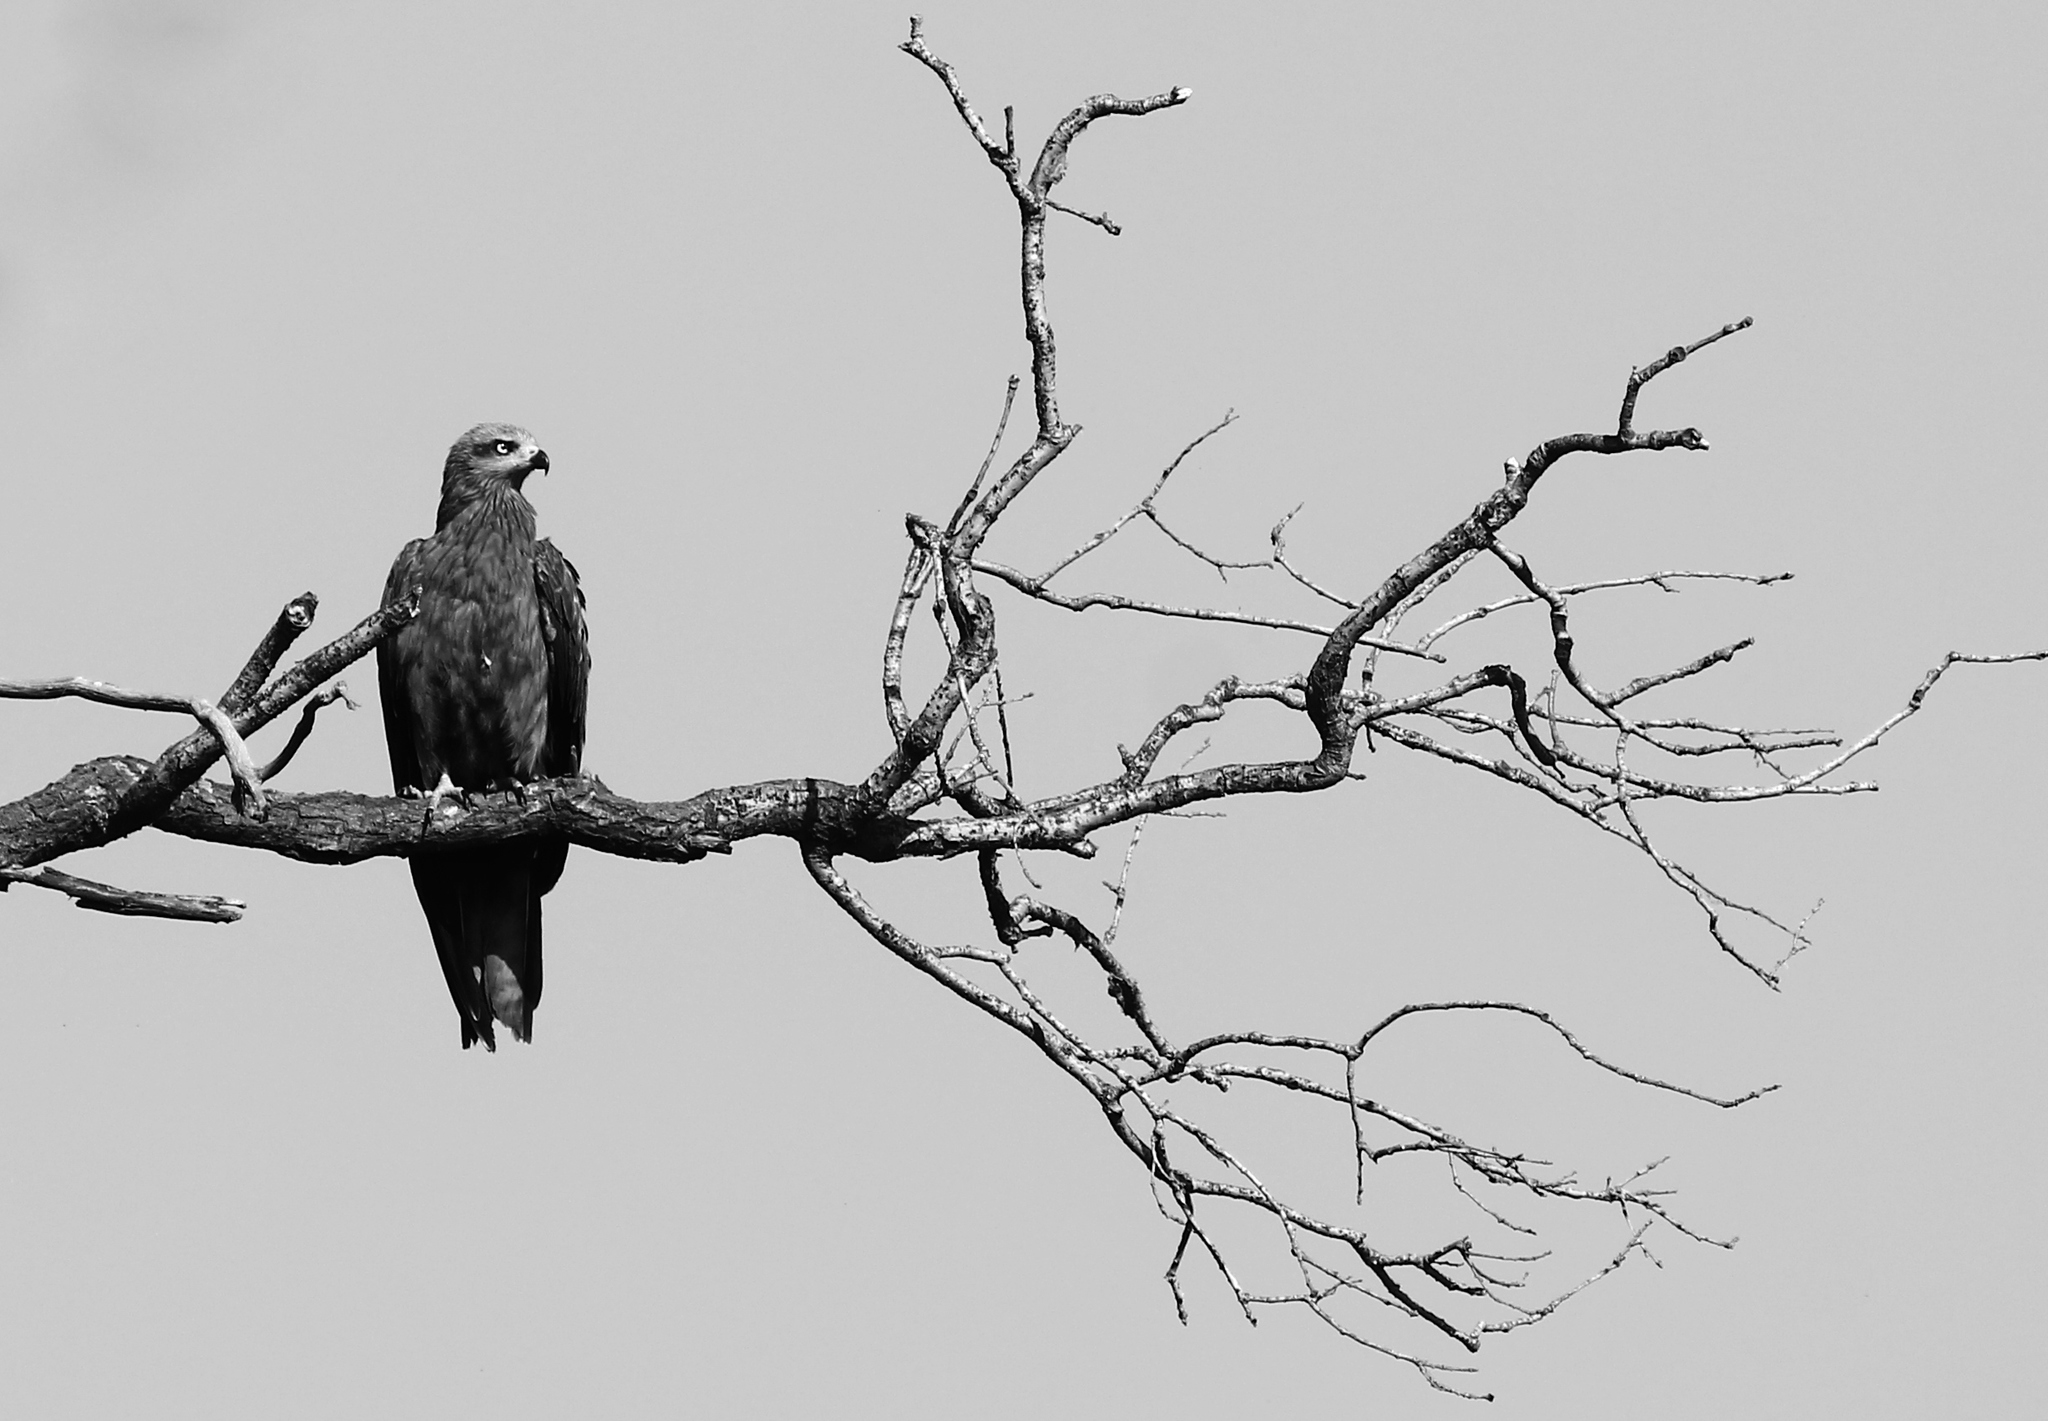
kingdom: Animalia
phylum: Chordata
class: Aves
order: Accipitriformes
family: Accipitridae
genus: Milvus
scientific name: Milvus migrans
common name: Black kite
